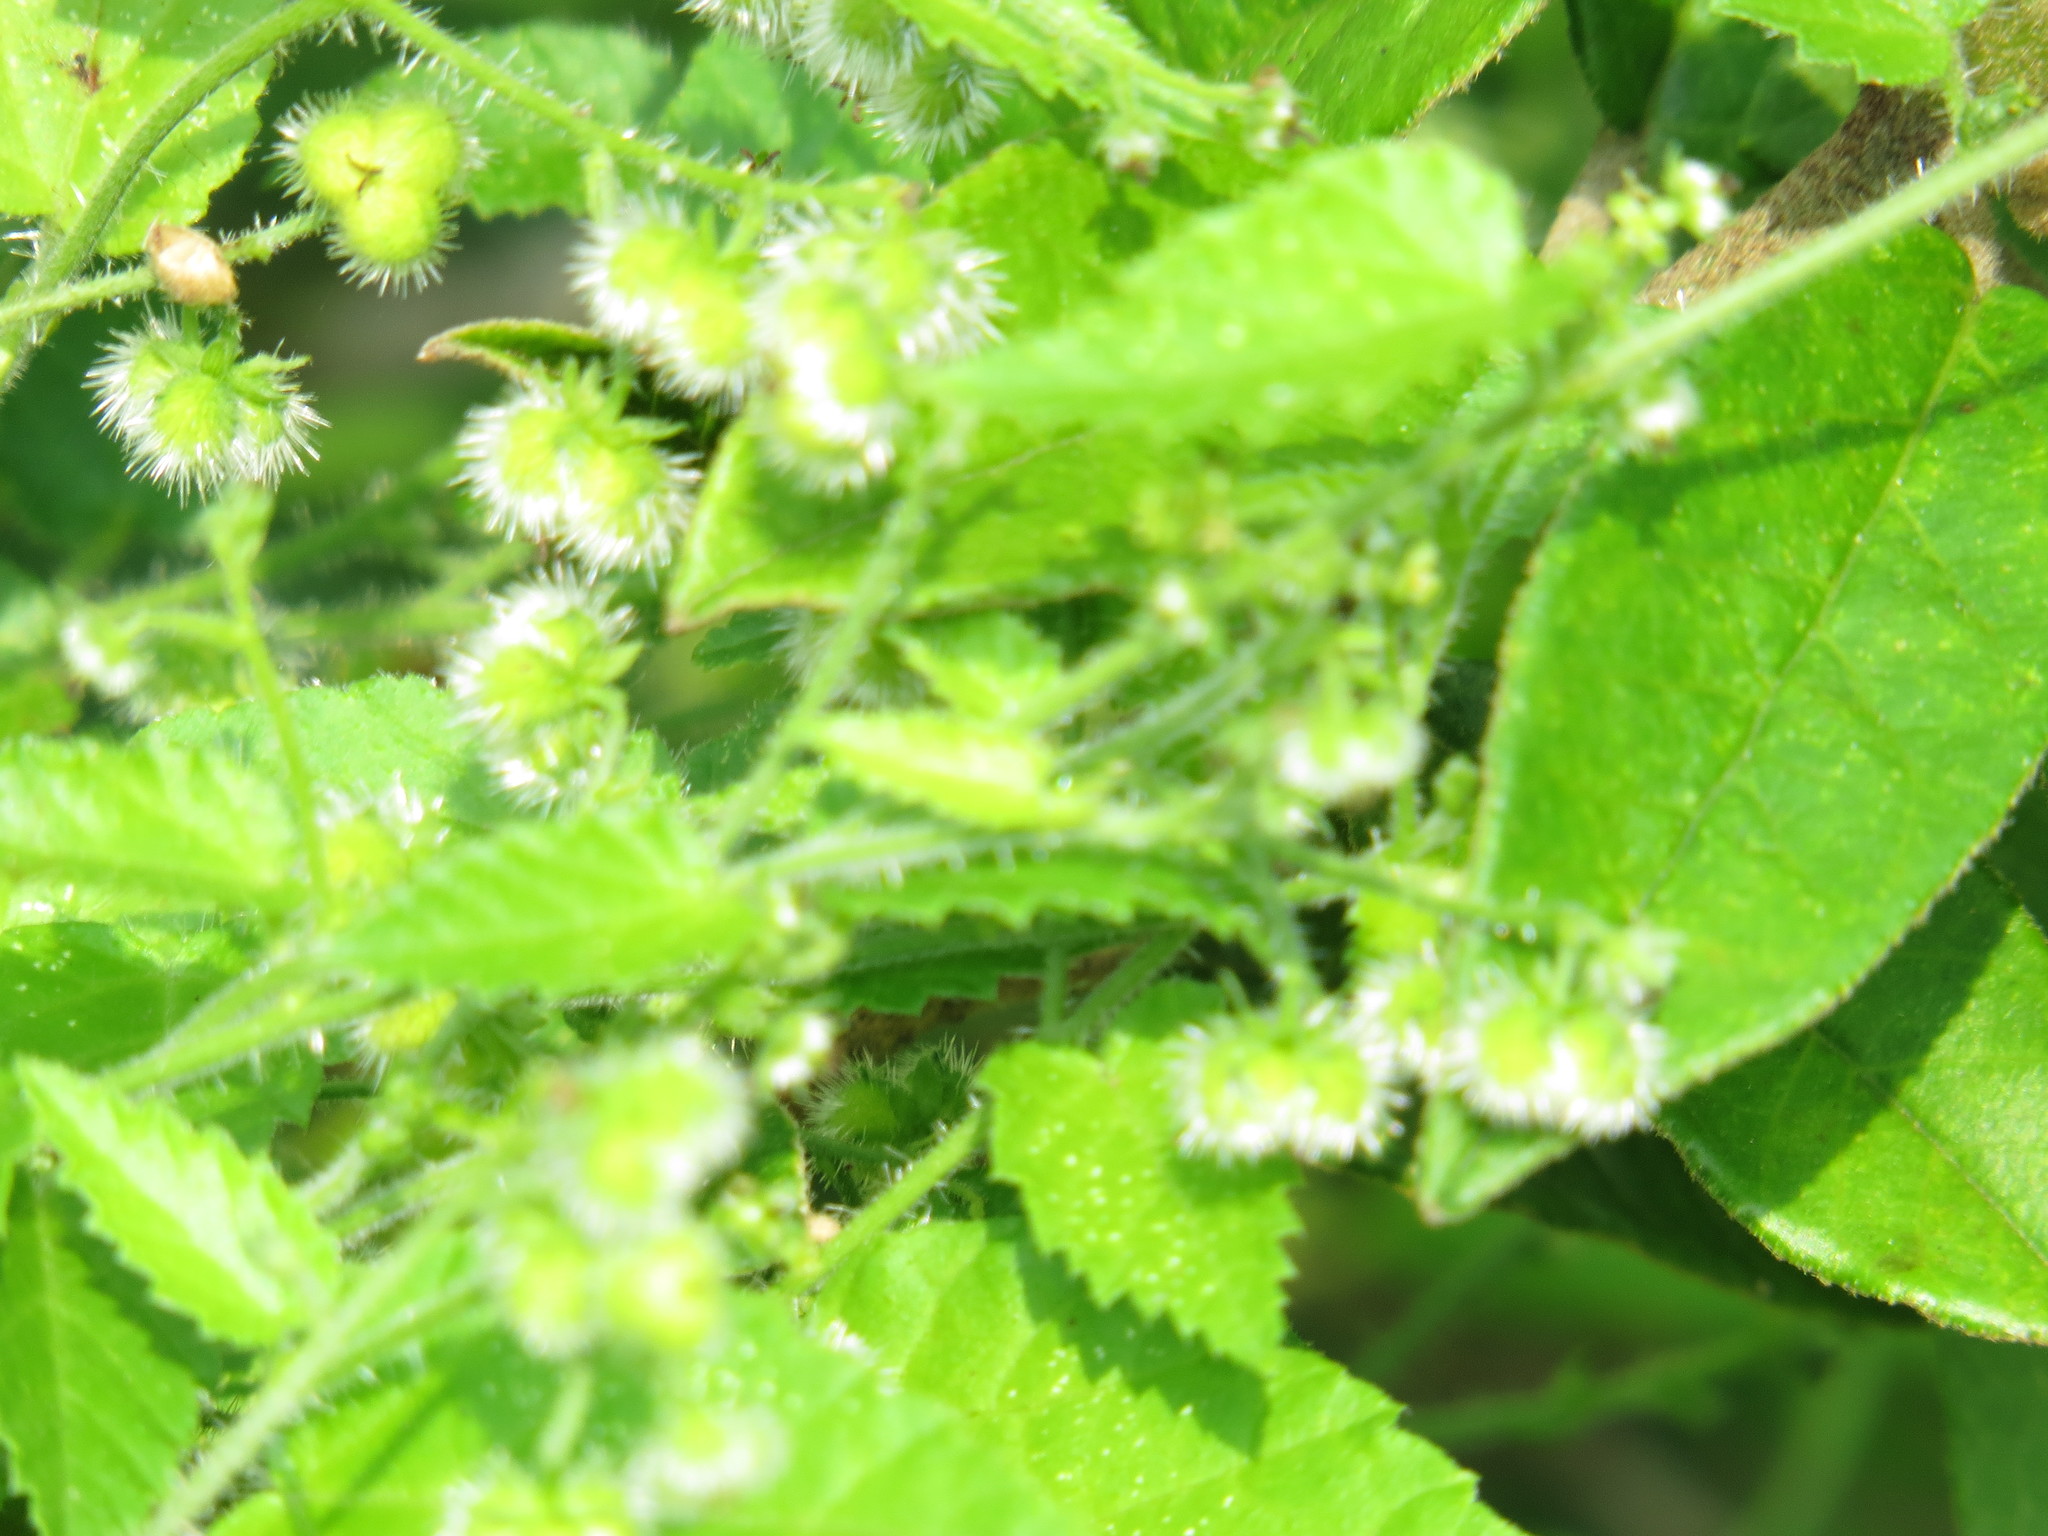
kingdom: Plantae
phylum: Tracheophyta
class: Magnoliopsida
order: Malpighiales
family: Euphorbiaceae
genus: Tragia
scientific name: Tragia glanduligera
